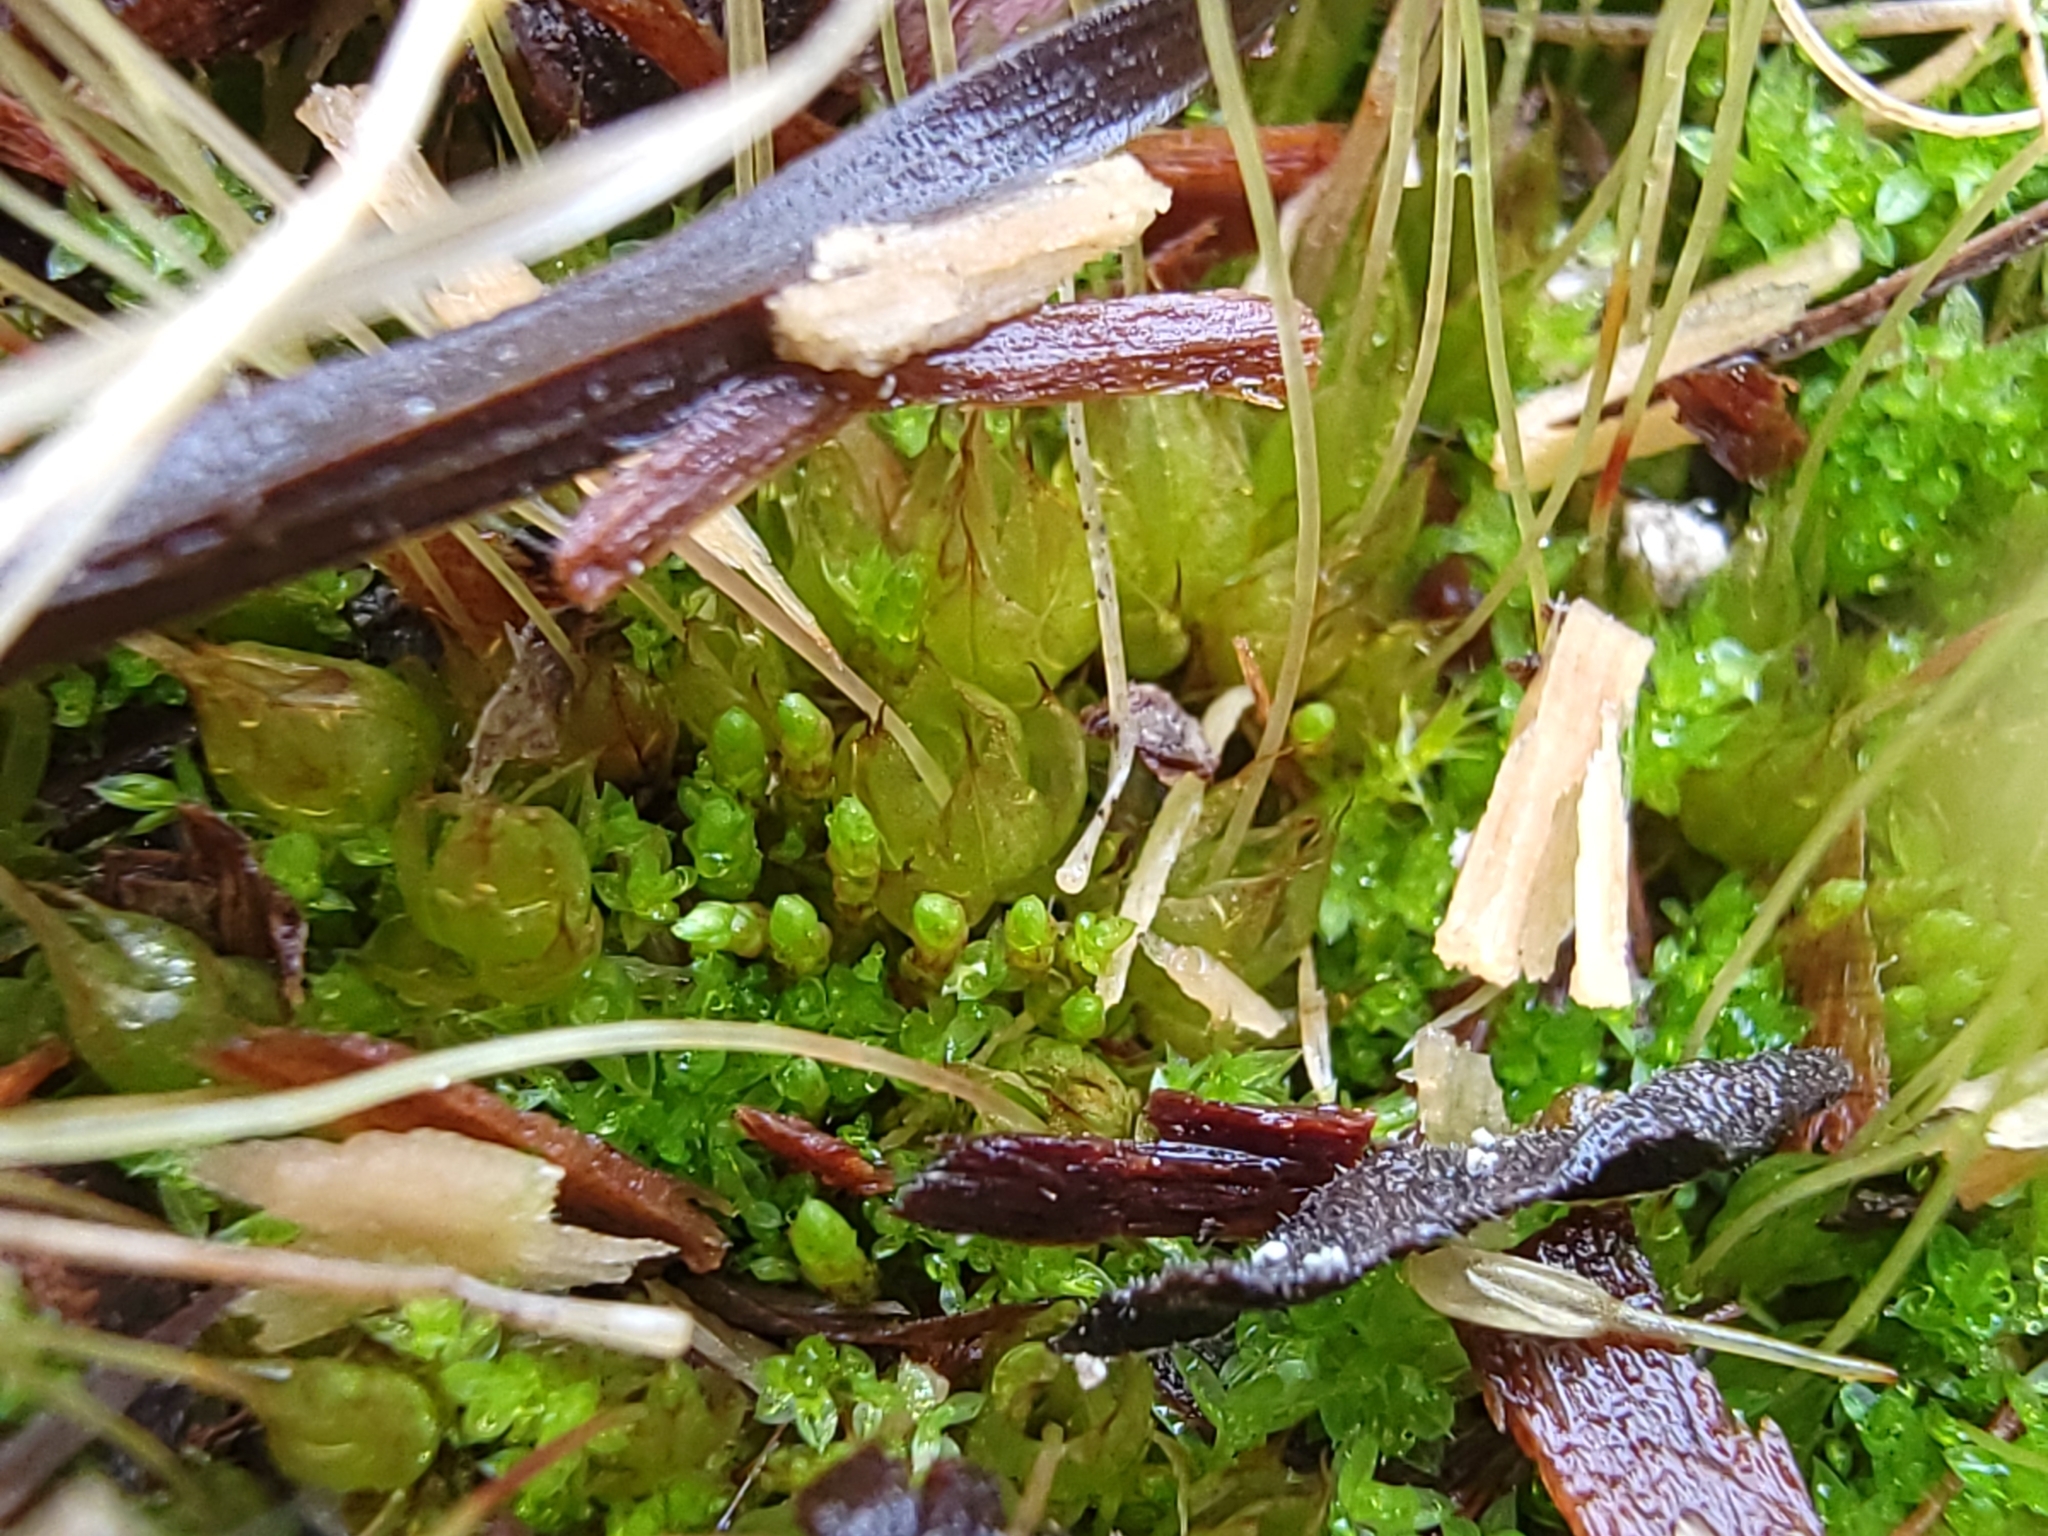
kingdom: Plantae
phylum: Bryophyta
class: Bryopsida
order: Funariales
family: Funariaceae
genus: Funaria
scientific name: Funaria hygrometrica
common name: Common cord moss
